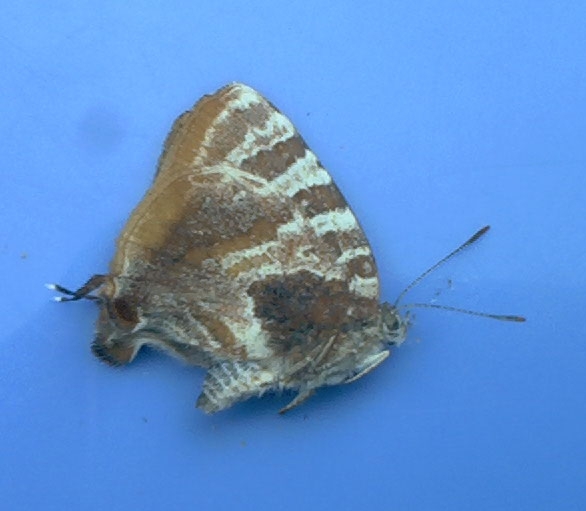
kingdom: Animalia
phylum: Arthropoda
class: Insecta
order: Lepidoptera
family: Lycaenidae
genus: Arawacus
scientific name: Arawacus ellida
